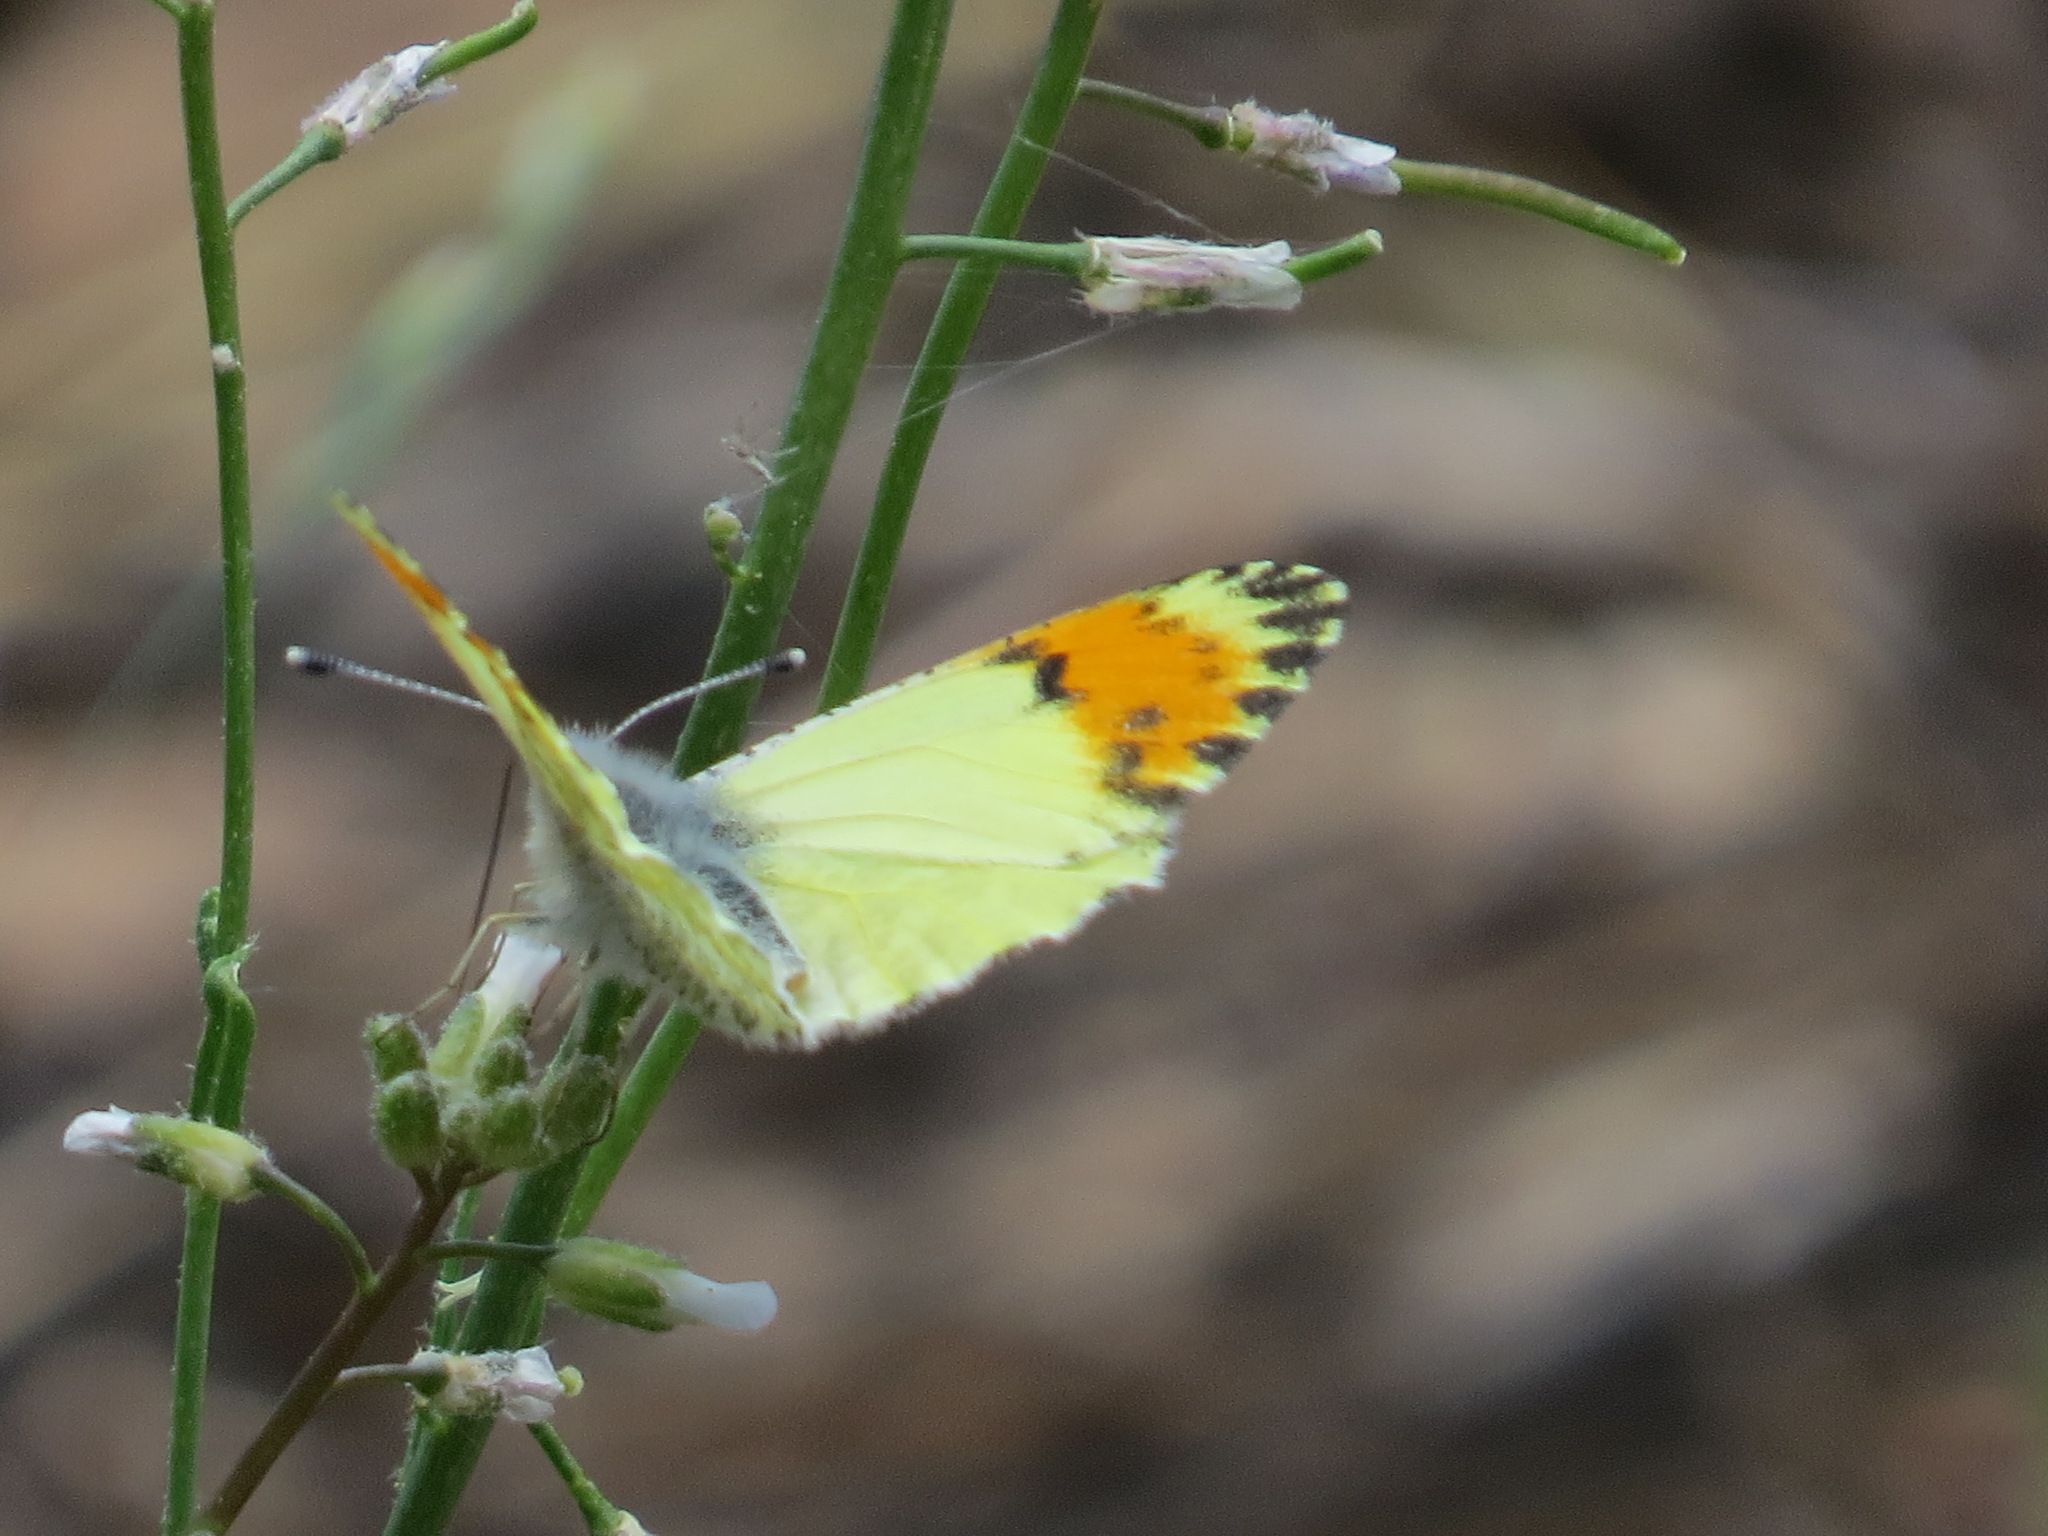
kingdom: Animalia
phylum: Arthropoda
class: Insecta
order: Lepidoptera
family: Pieridae
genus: Anthocharis
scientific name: Anthocharis julia
